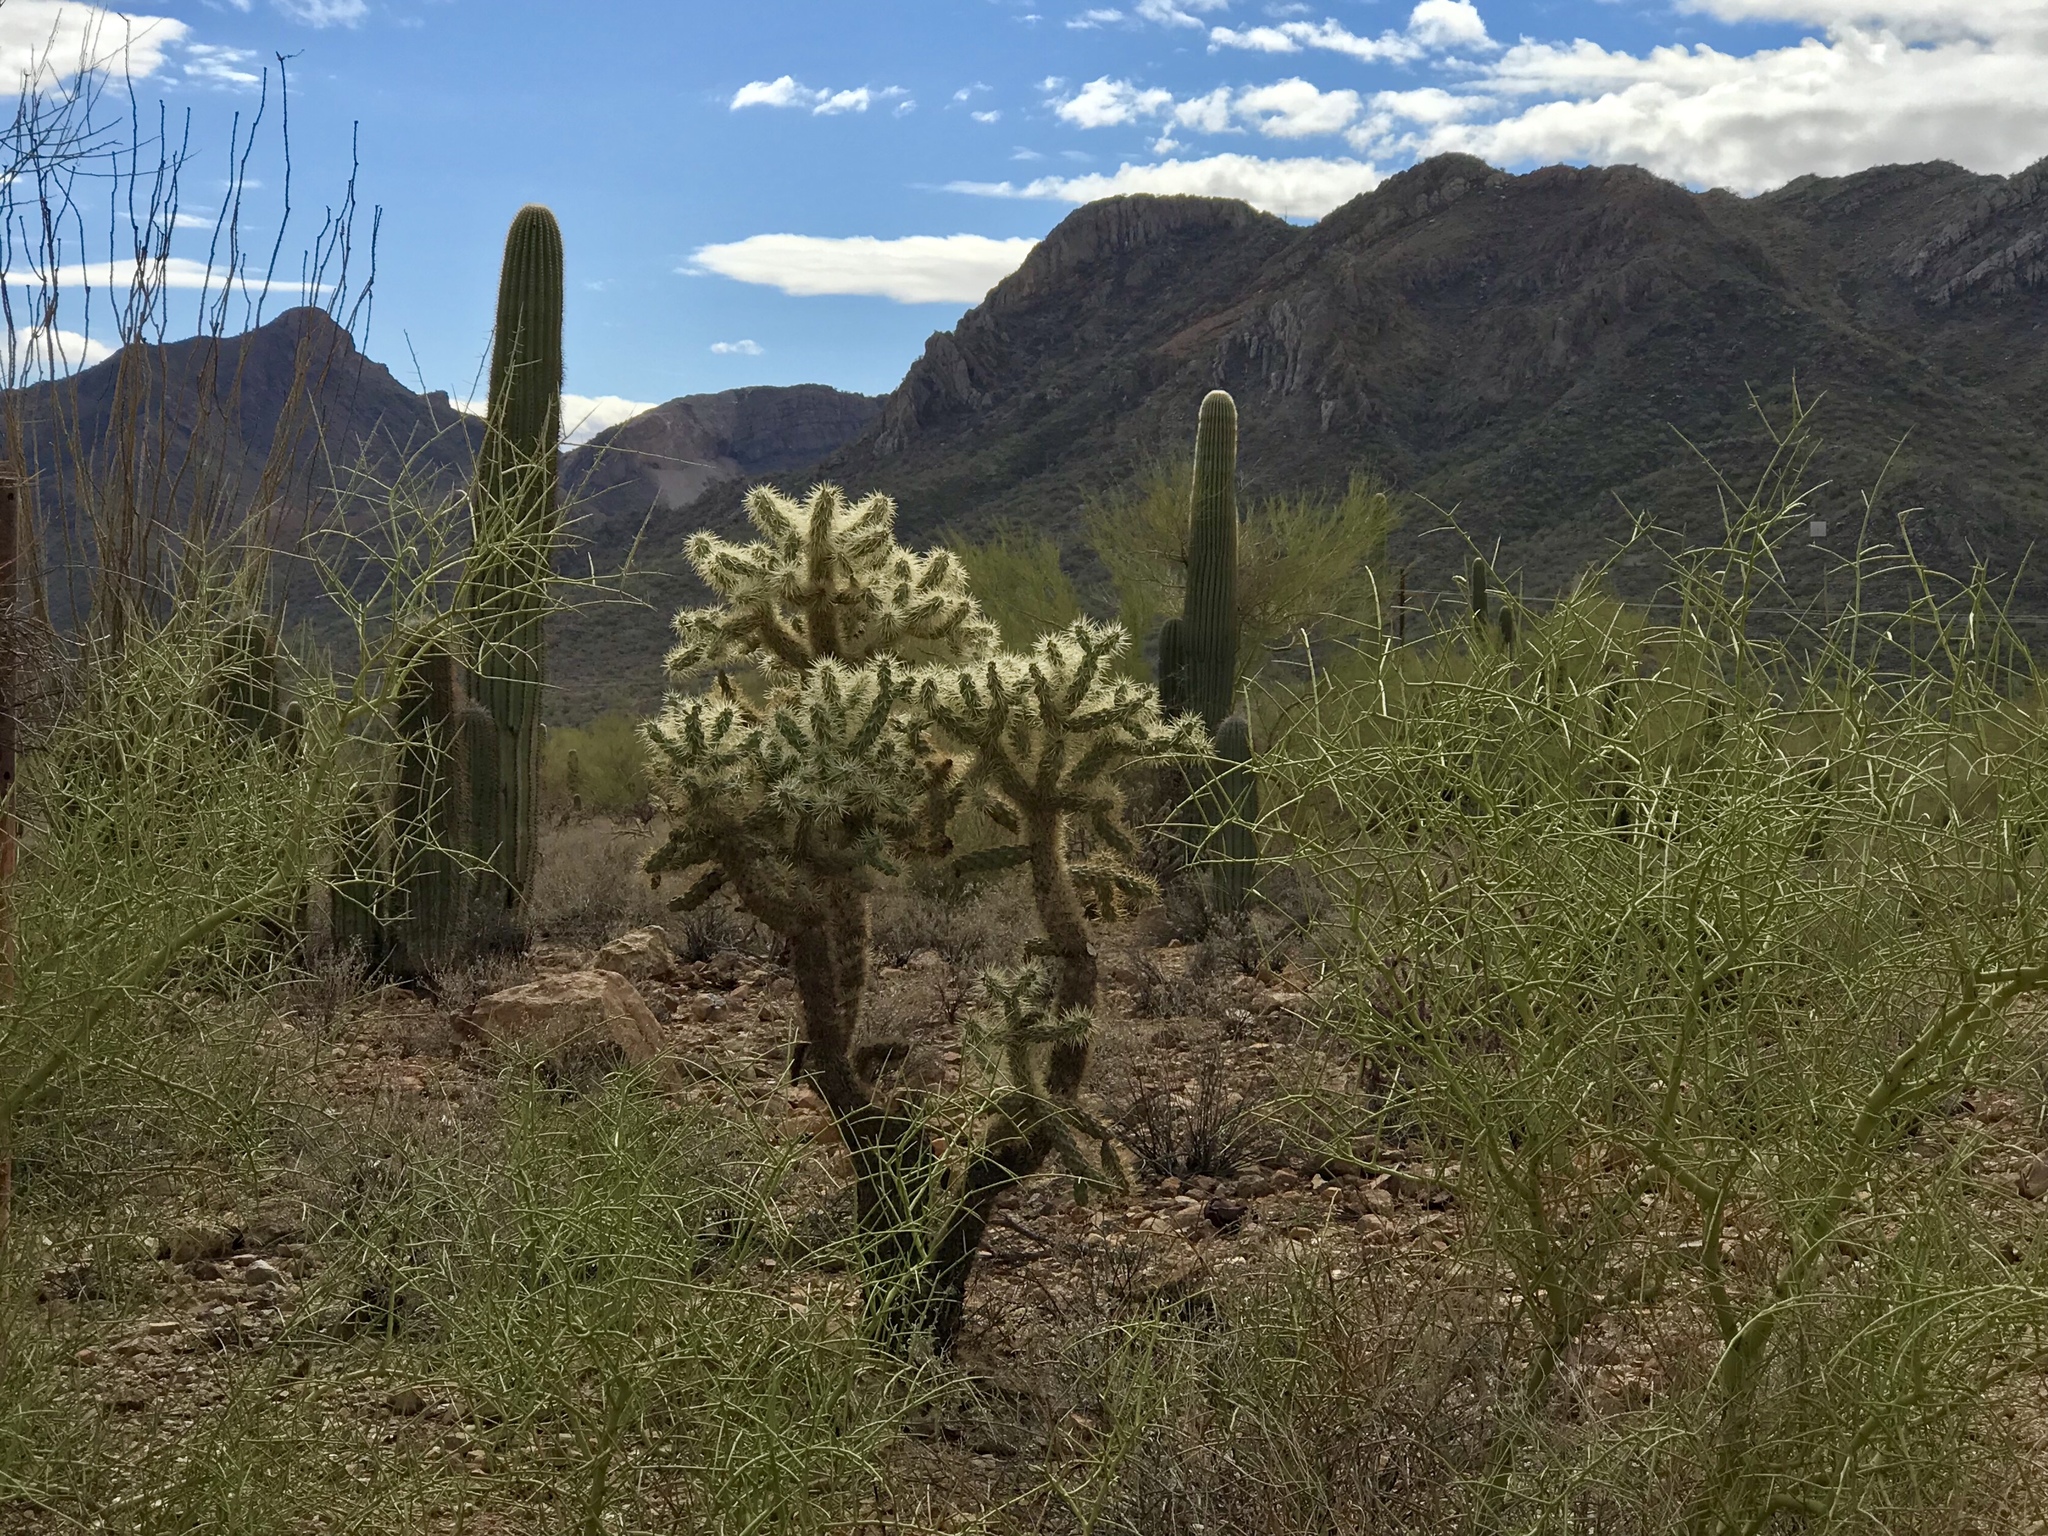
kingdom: Plantae
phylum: Tracheophyta
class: Magnoliopsida
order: Caryophyllales
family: Cactaceae
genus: Cylindropuntia
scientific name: Cylindropuntia fulgida
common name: Jumping cholla
